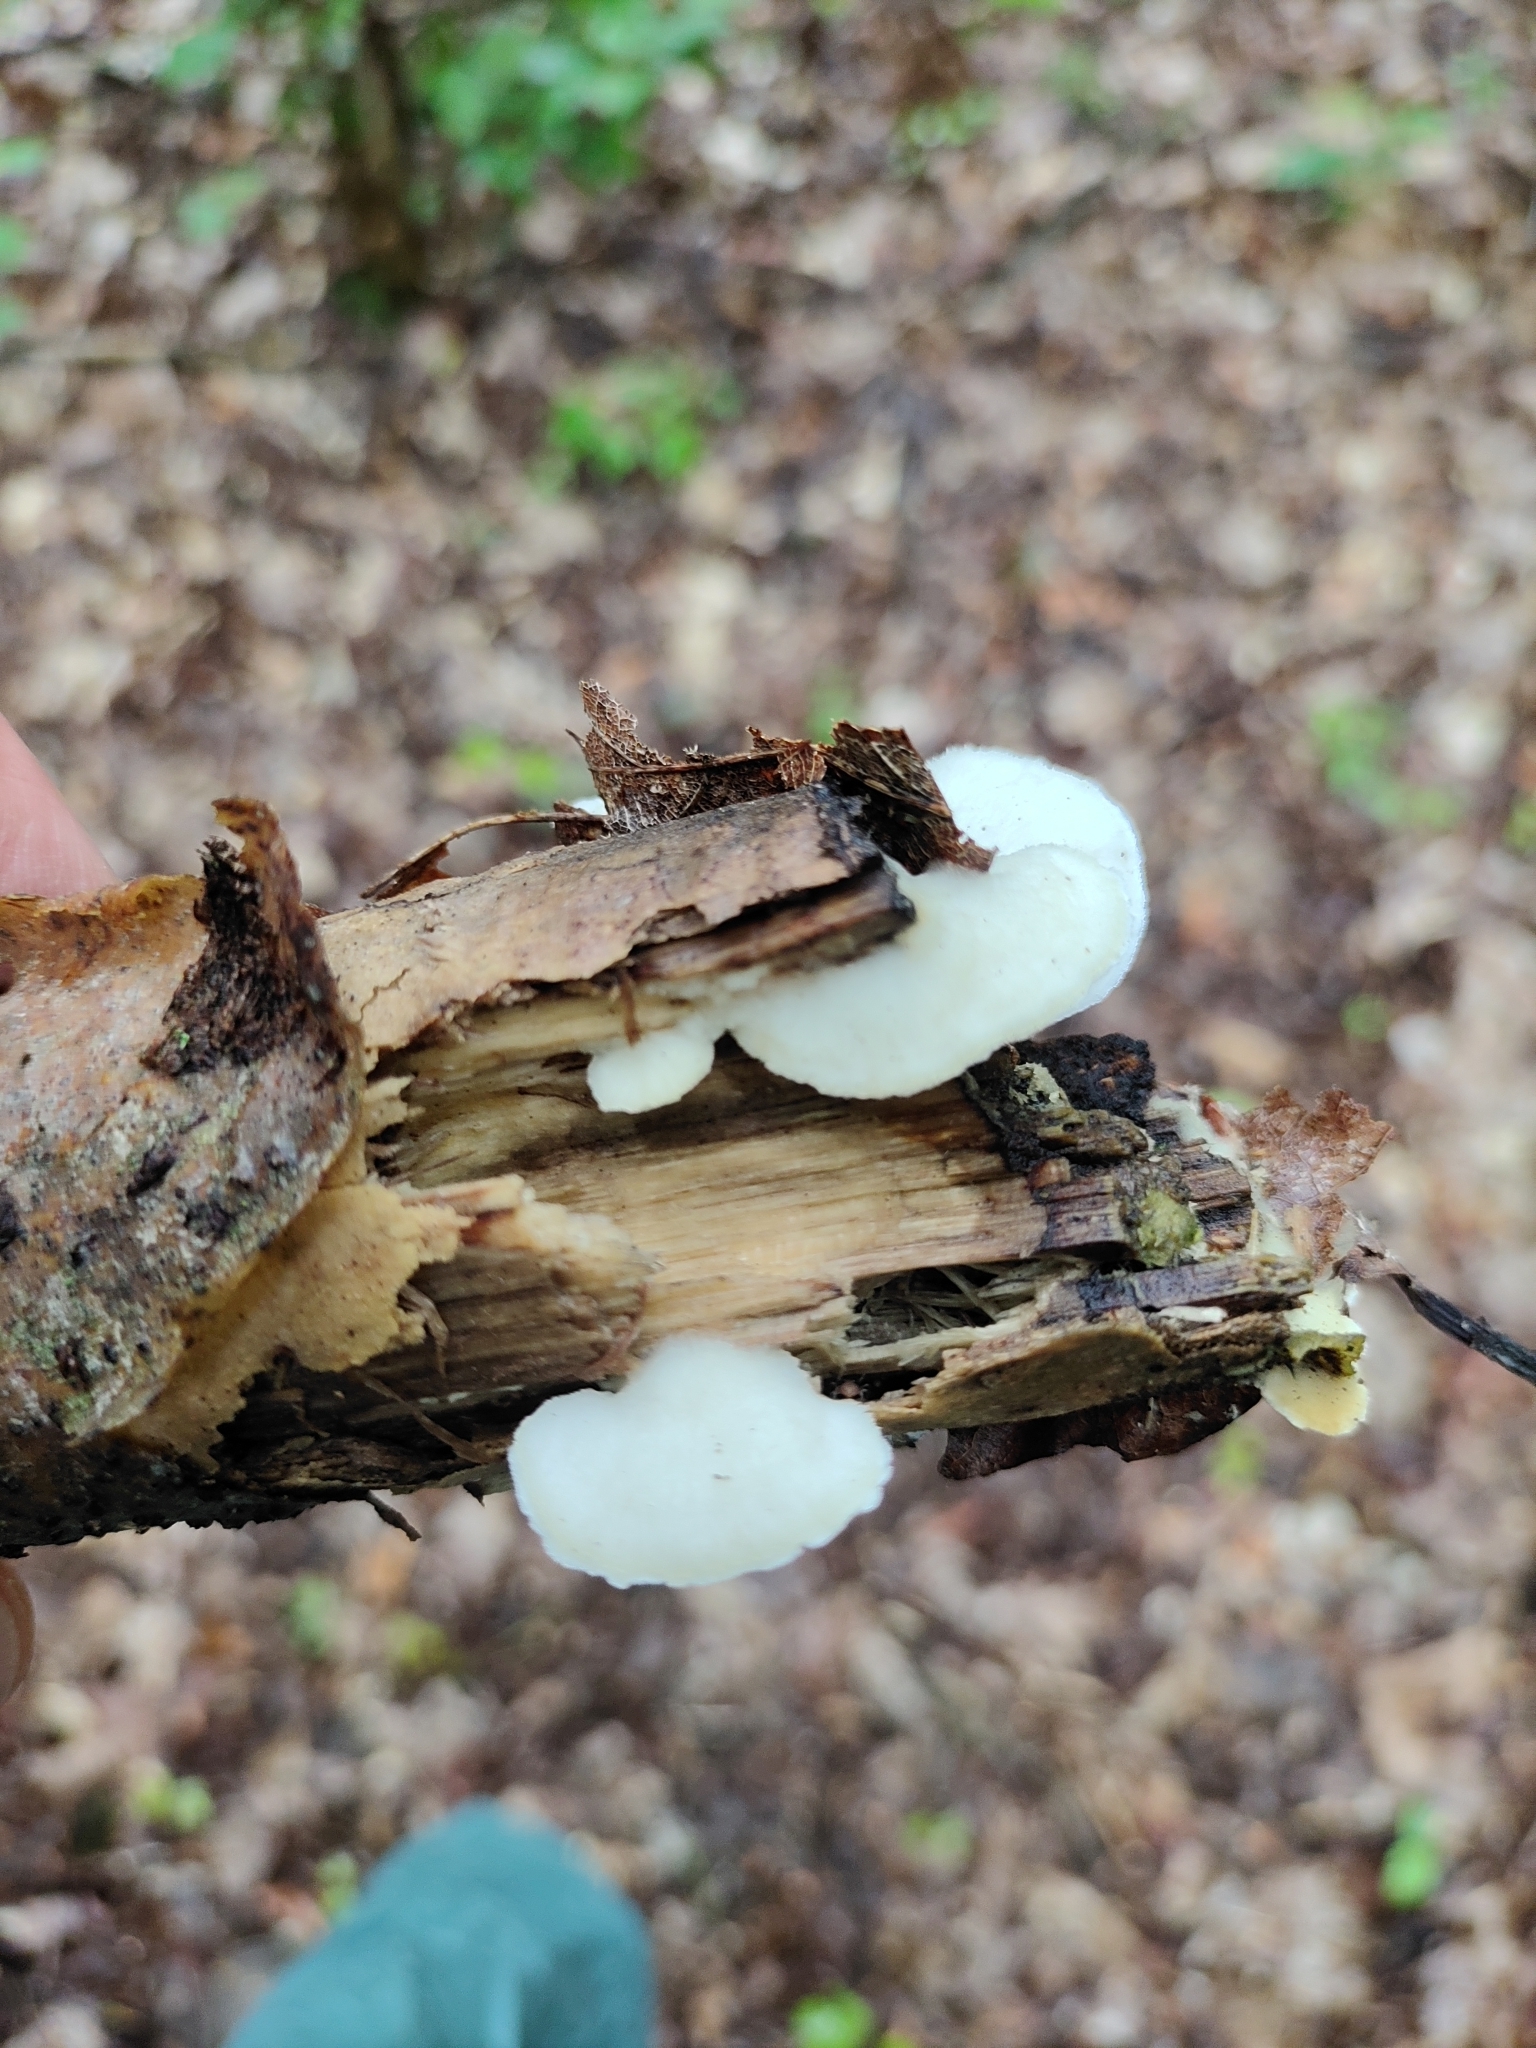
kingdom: Fungi
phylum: Basidiomycota
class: Agaricomycetes
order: Polyporales
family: Irpicaceae
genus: Vitreoporus
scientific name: Vitreoporus dichrous
